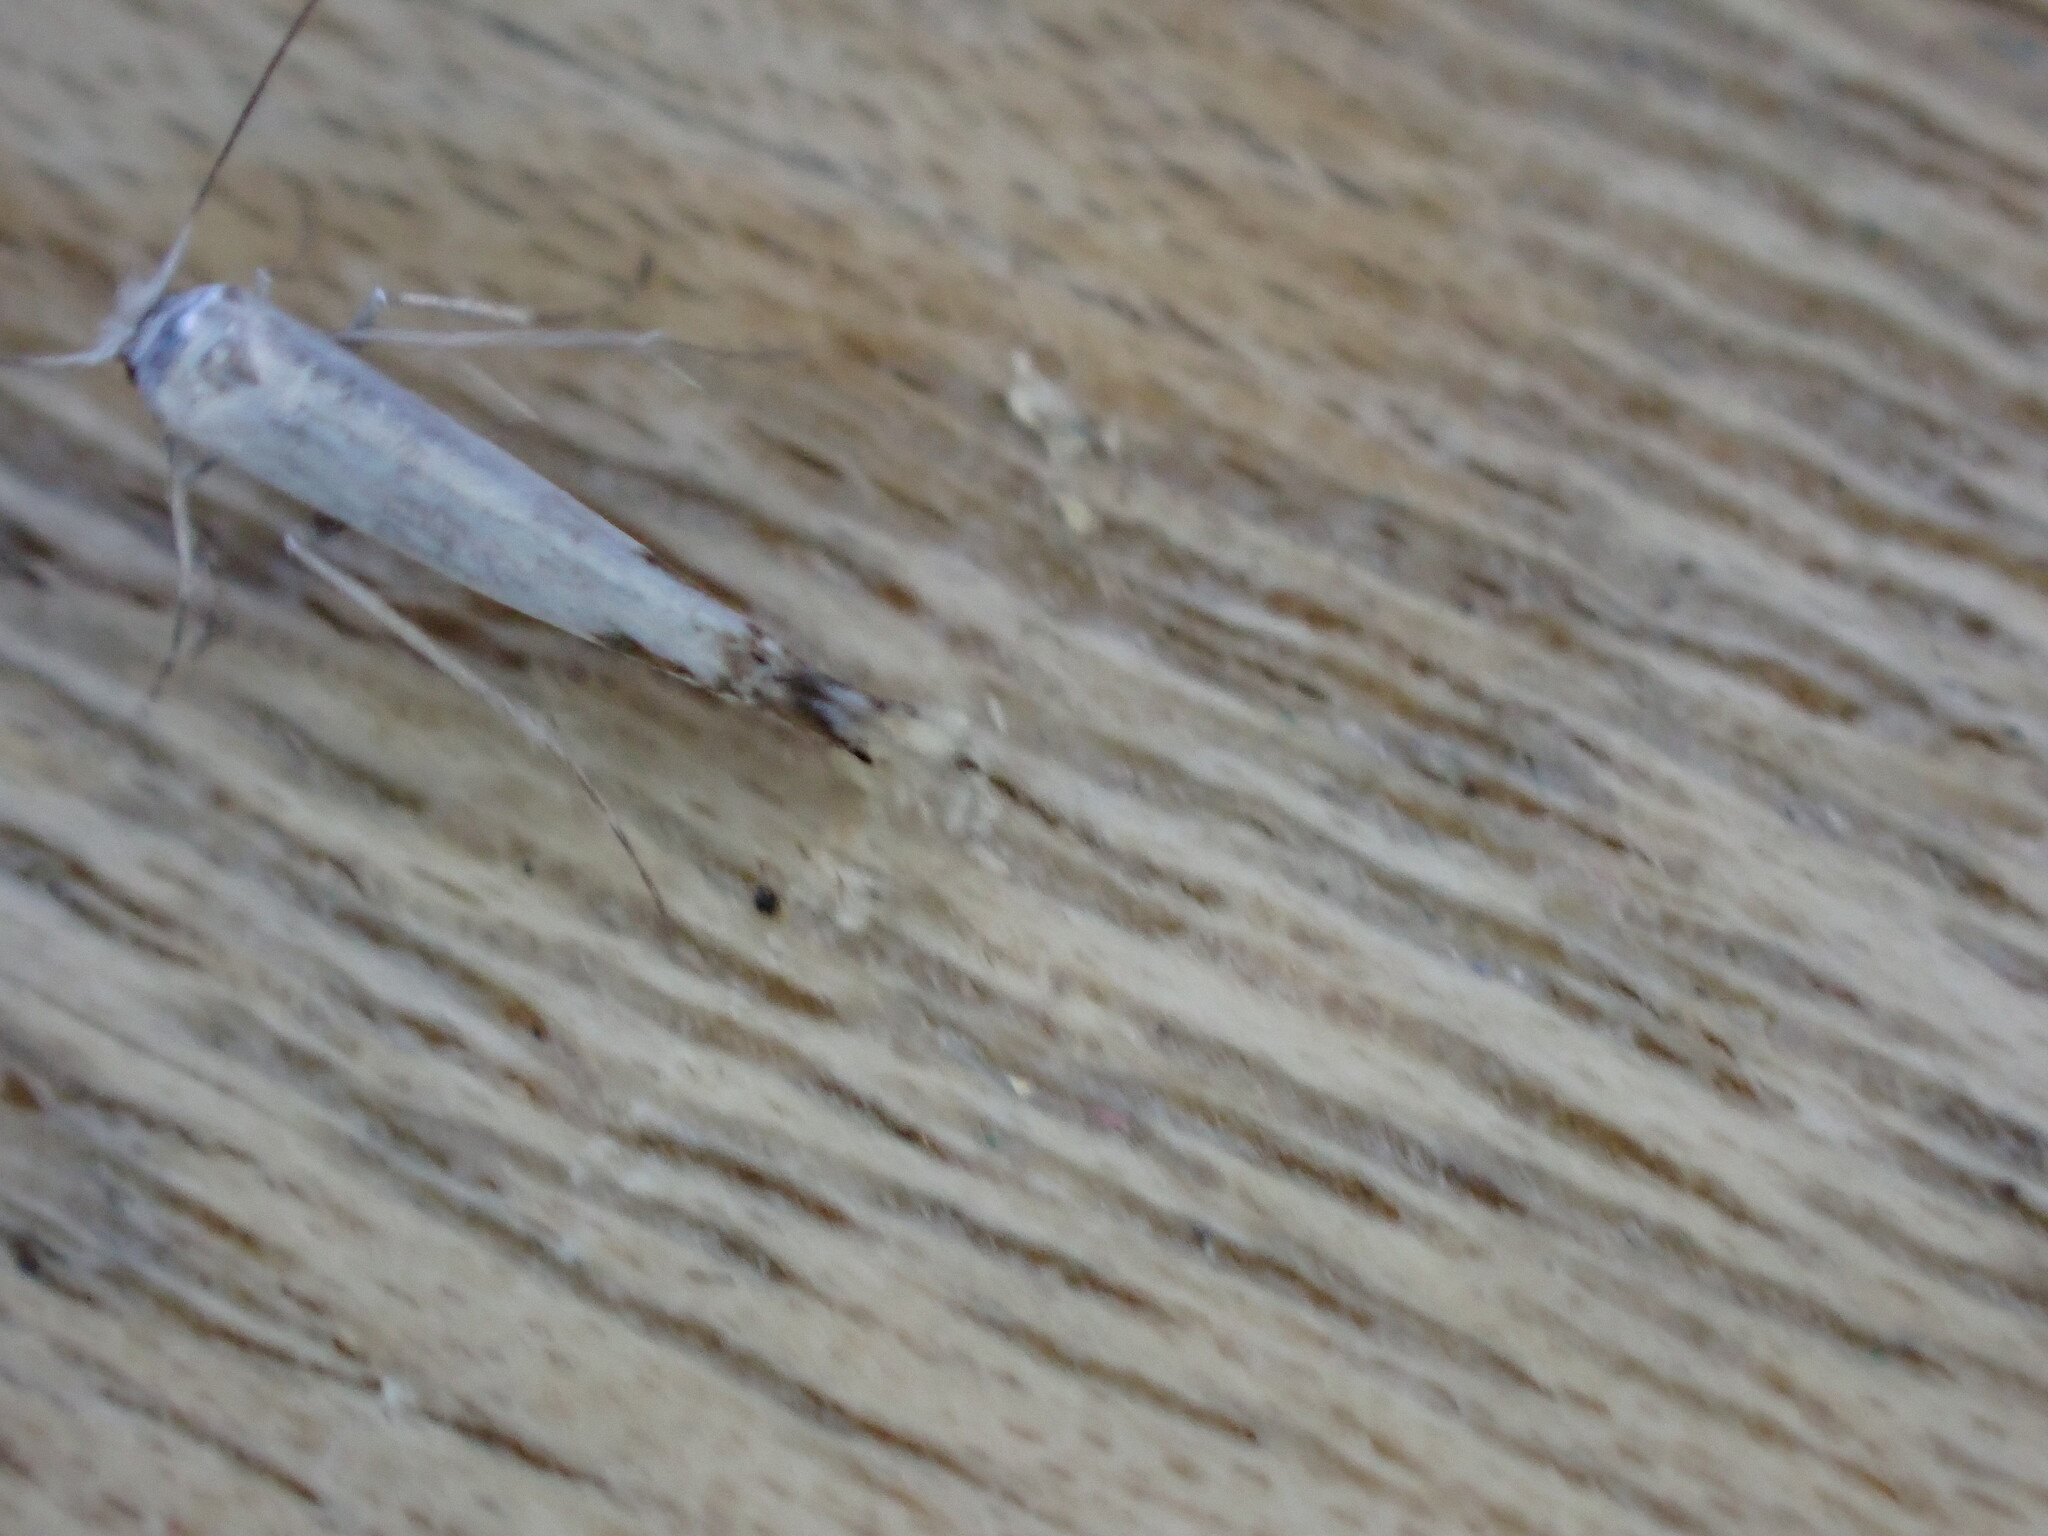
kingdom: Animalia
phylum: Arthropoda
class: Insecta
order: Lepidoptera
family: Lyonetiidae
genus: Lyonetia
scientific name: Lyonetia clerkella
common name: Apple leaf miner
